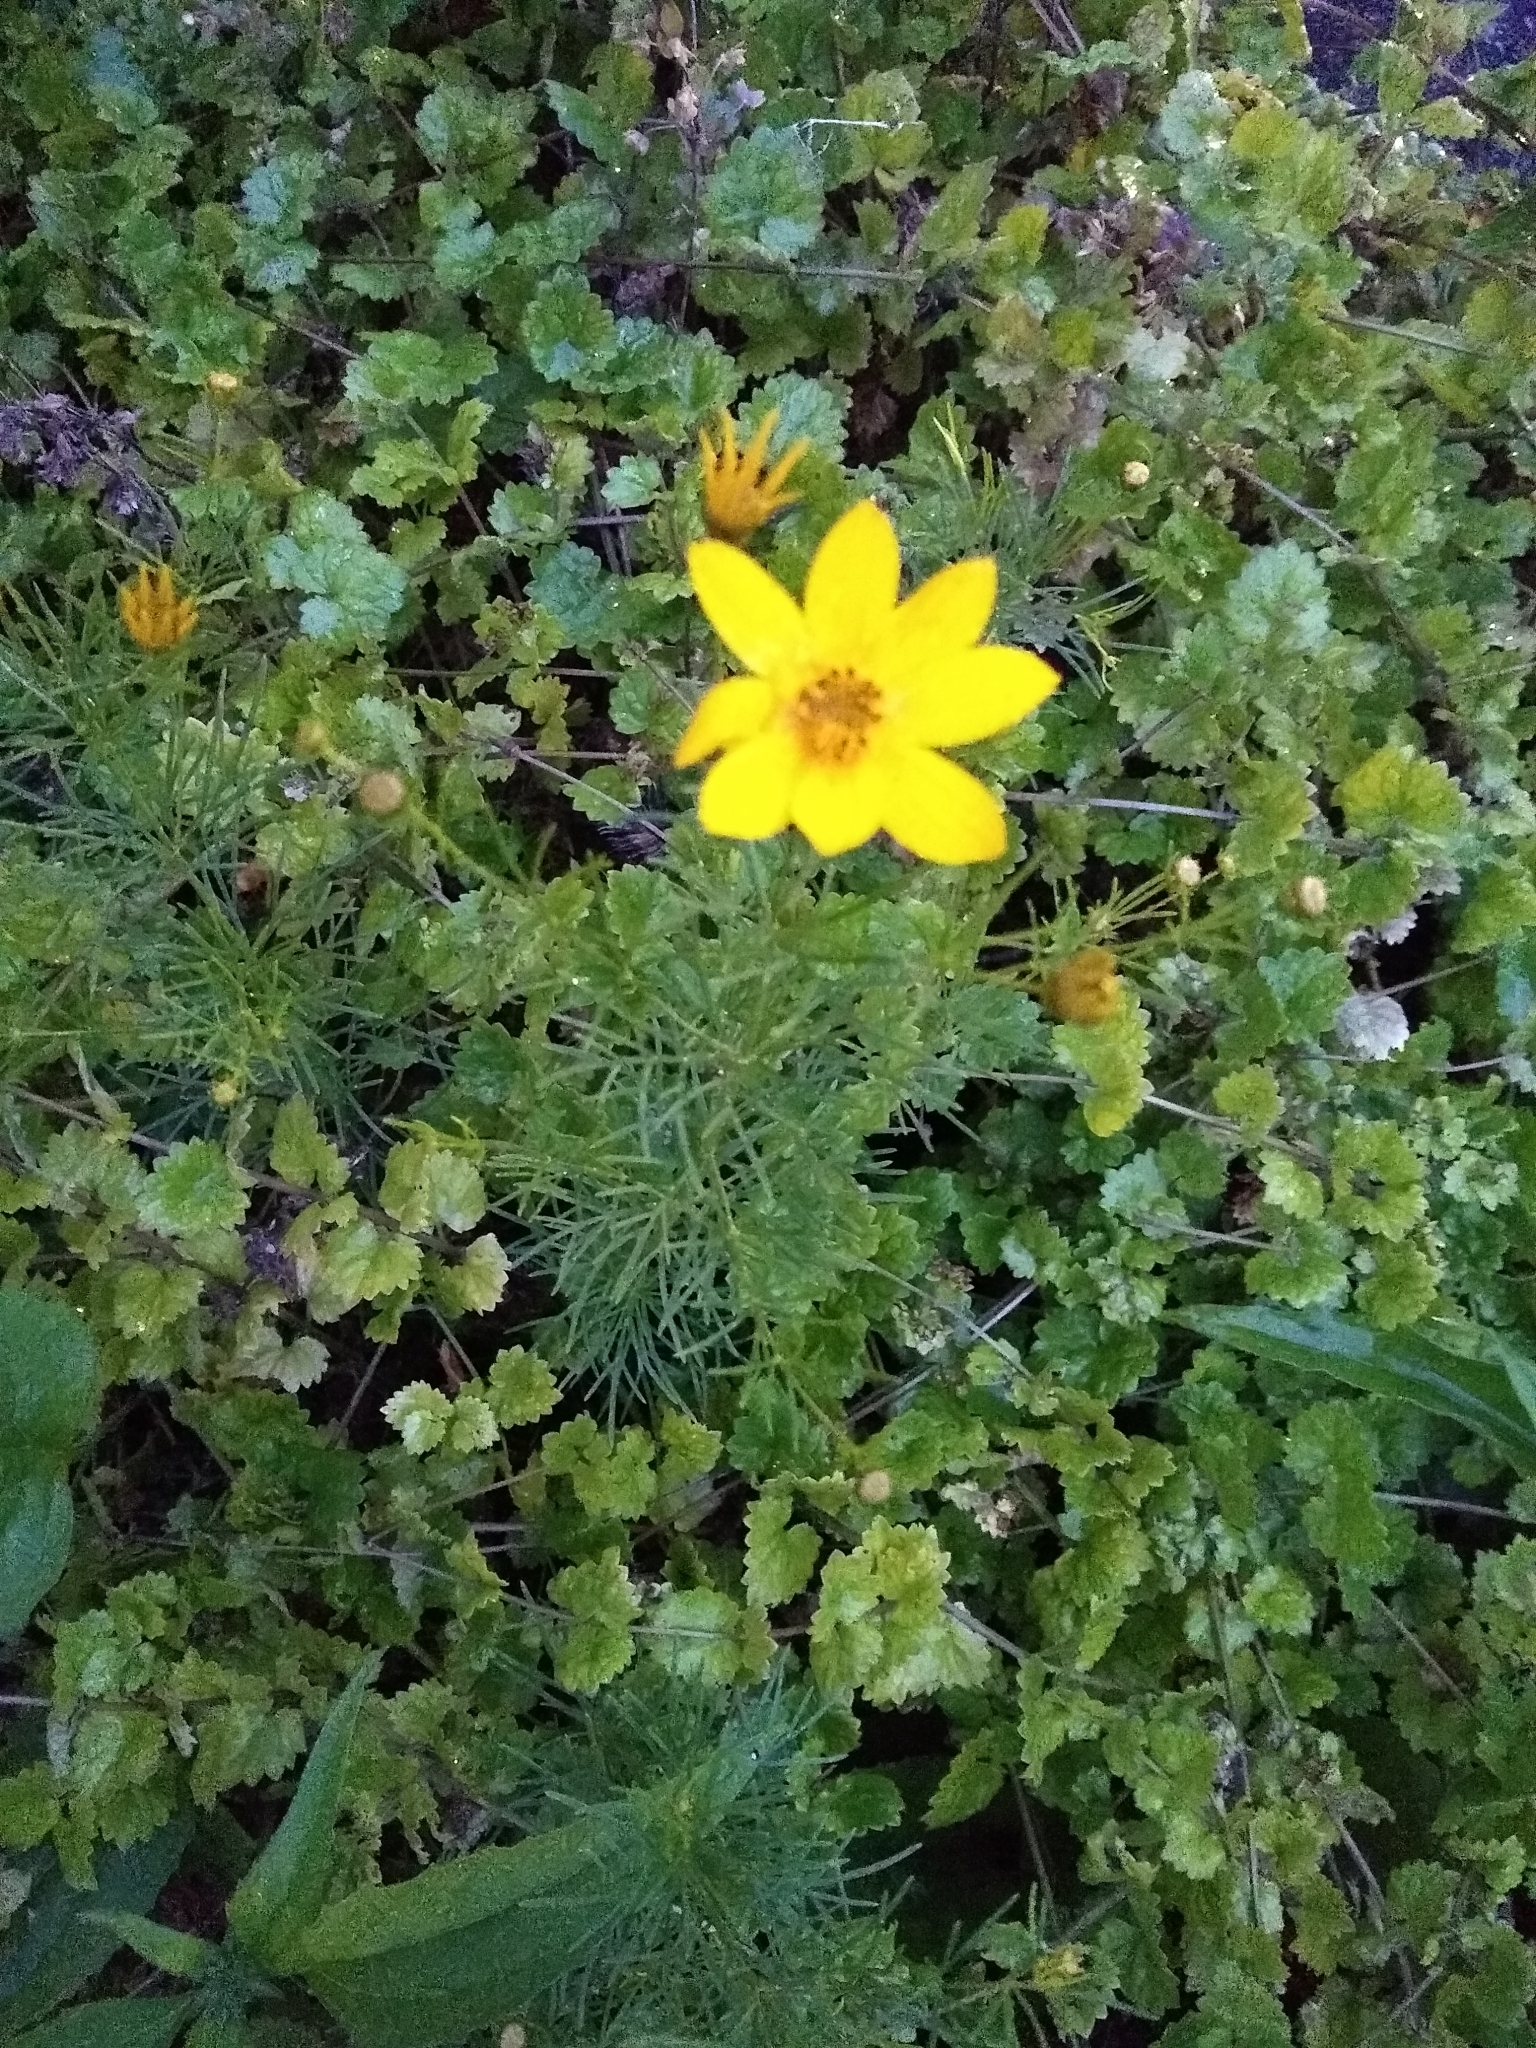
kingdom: Plantae
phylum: Tracheophyta
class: Magnoliopsida
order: Asterales
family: Asteraceae
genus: Coreopsis
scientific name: Coreopsis verticillata
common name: Whorled tickseed
